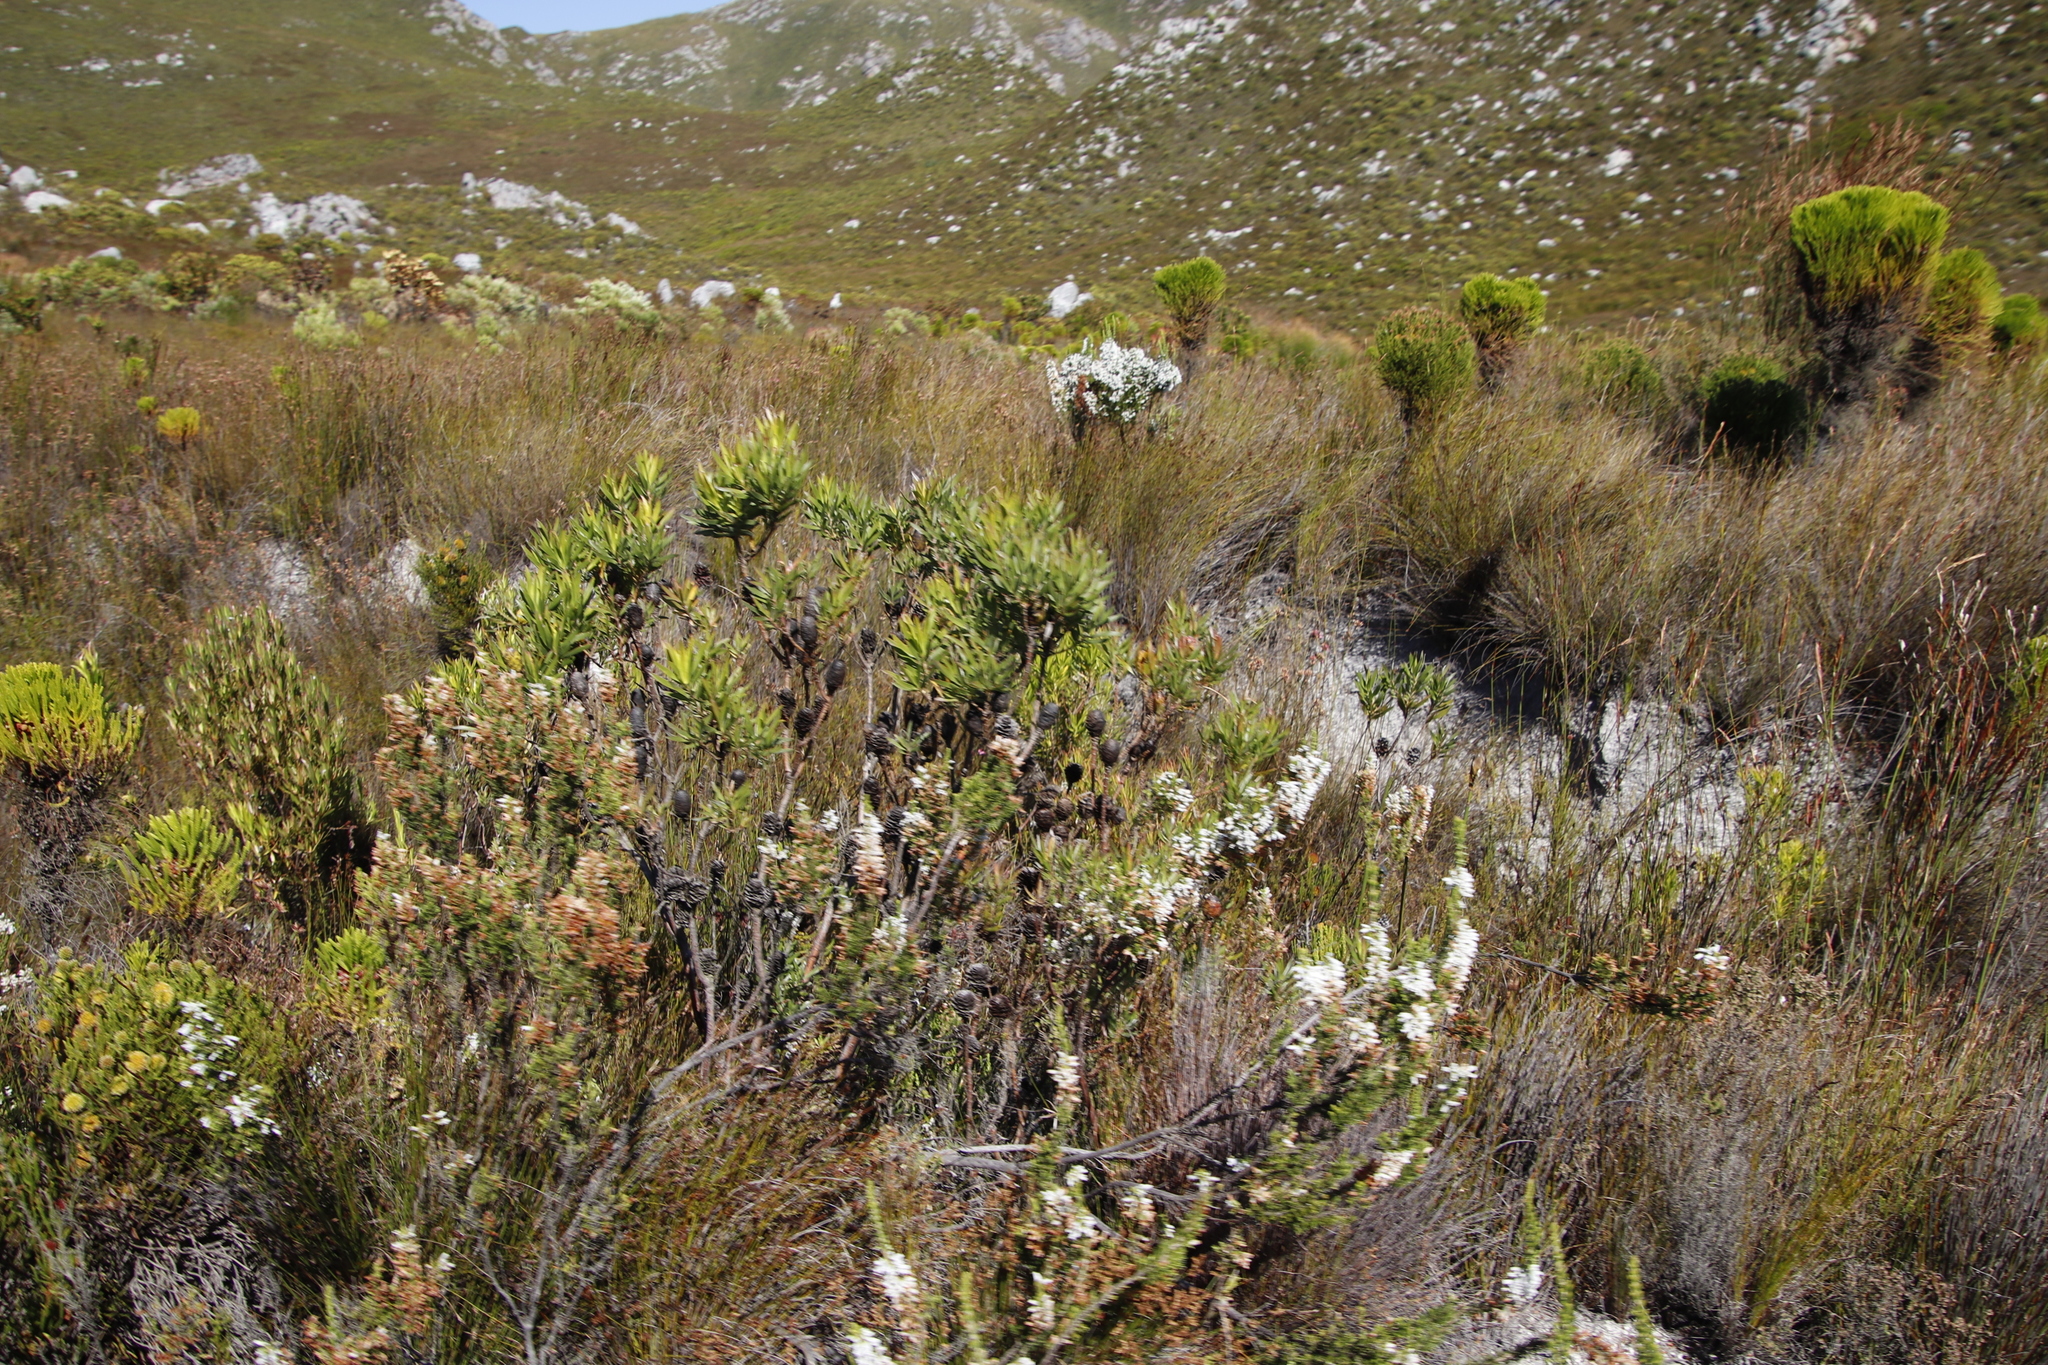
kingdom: Plantae
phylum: Tracheophyta
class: Magnoliopsida
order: Proteales
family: Proteaceae
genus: Leucadendron
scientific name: Leucadendron xanthoconus
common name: Sickle-leaf conebush
